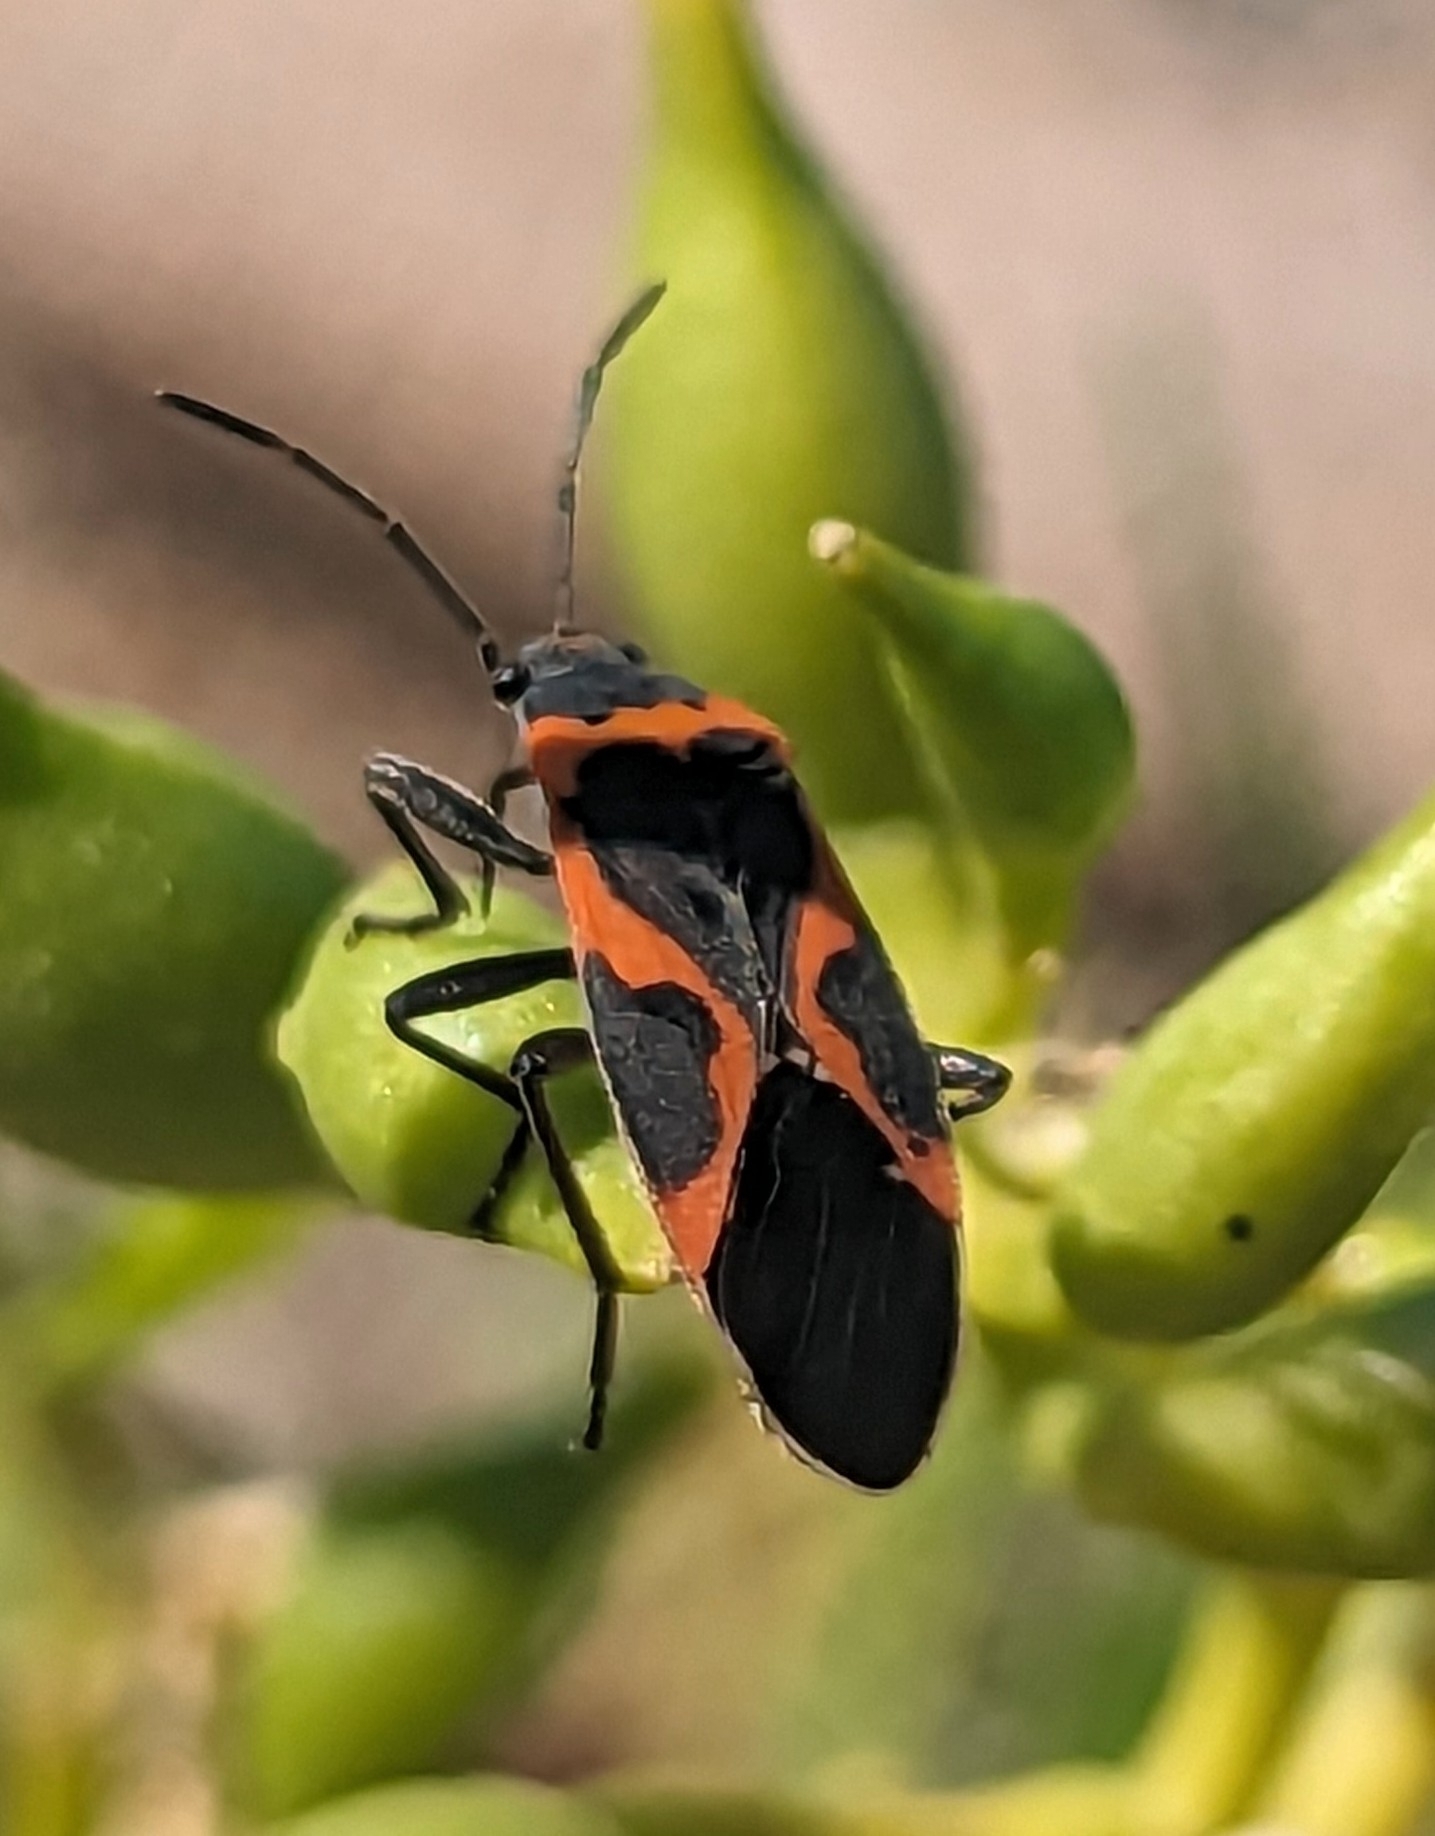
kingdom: Animalia
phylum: Arthropoda
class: Insecta
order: Hemiptera
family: Lygaeidae
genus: Lygaeus
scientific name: Lygaeus kalmii
